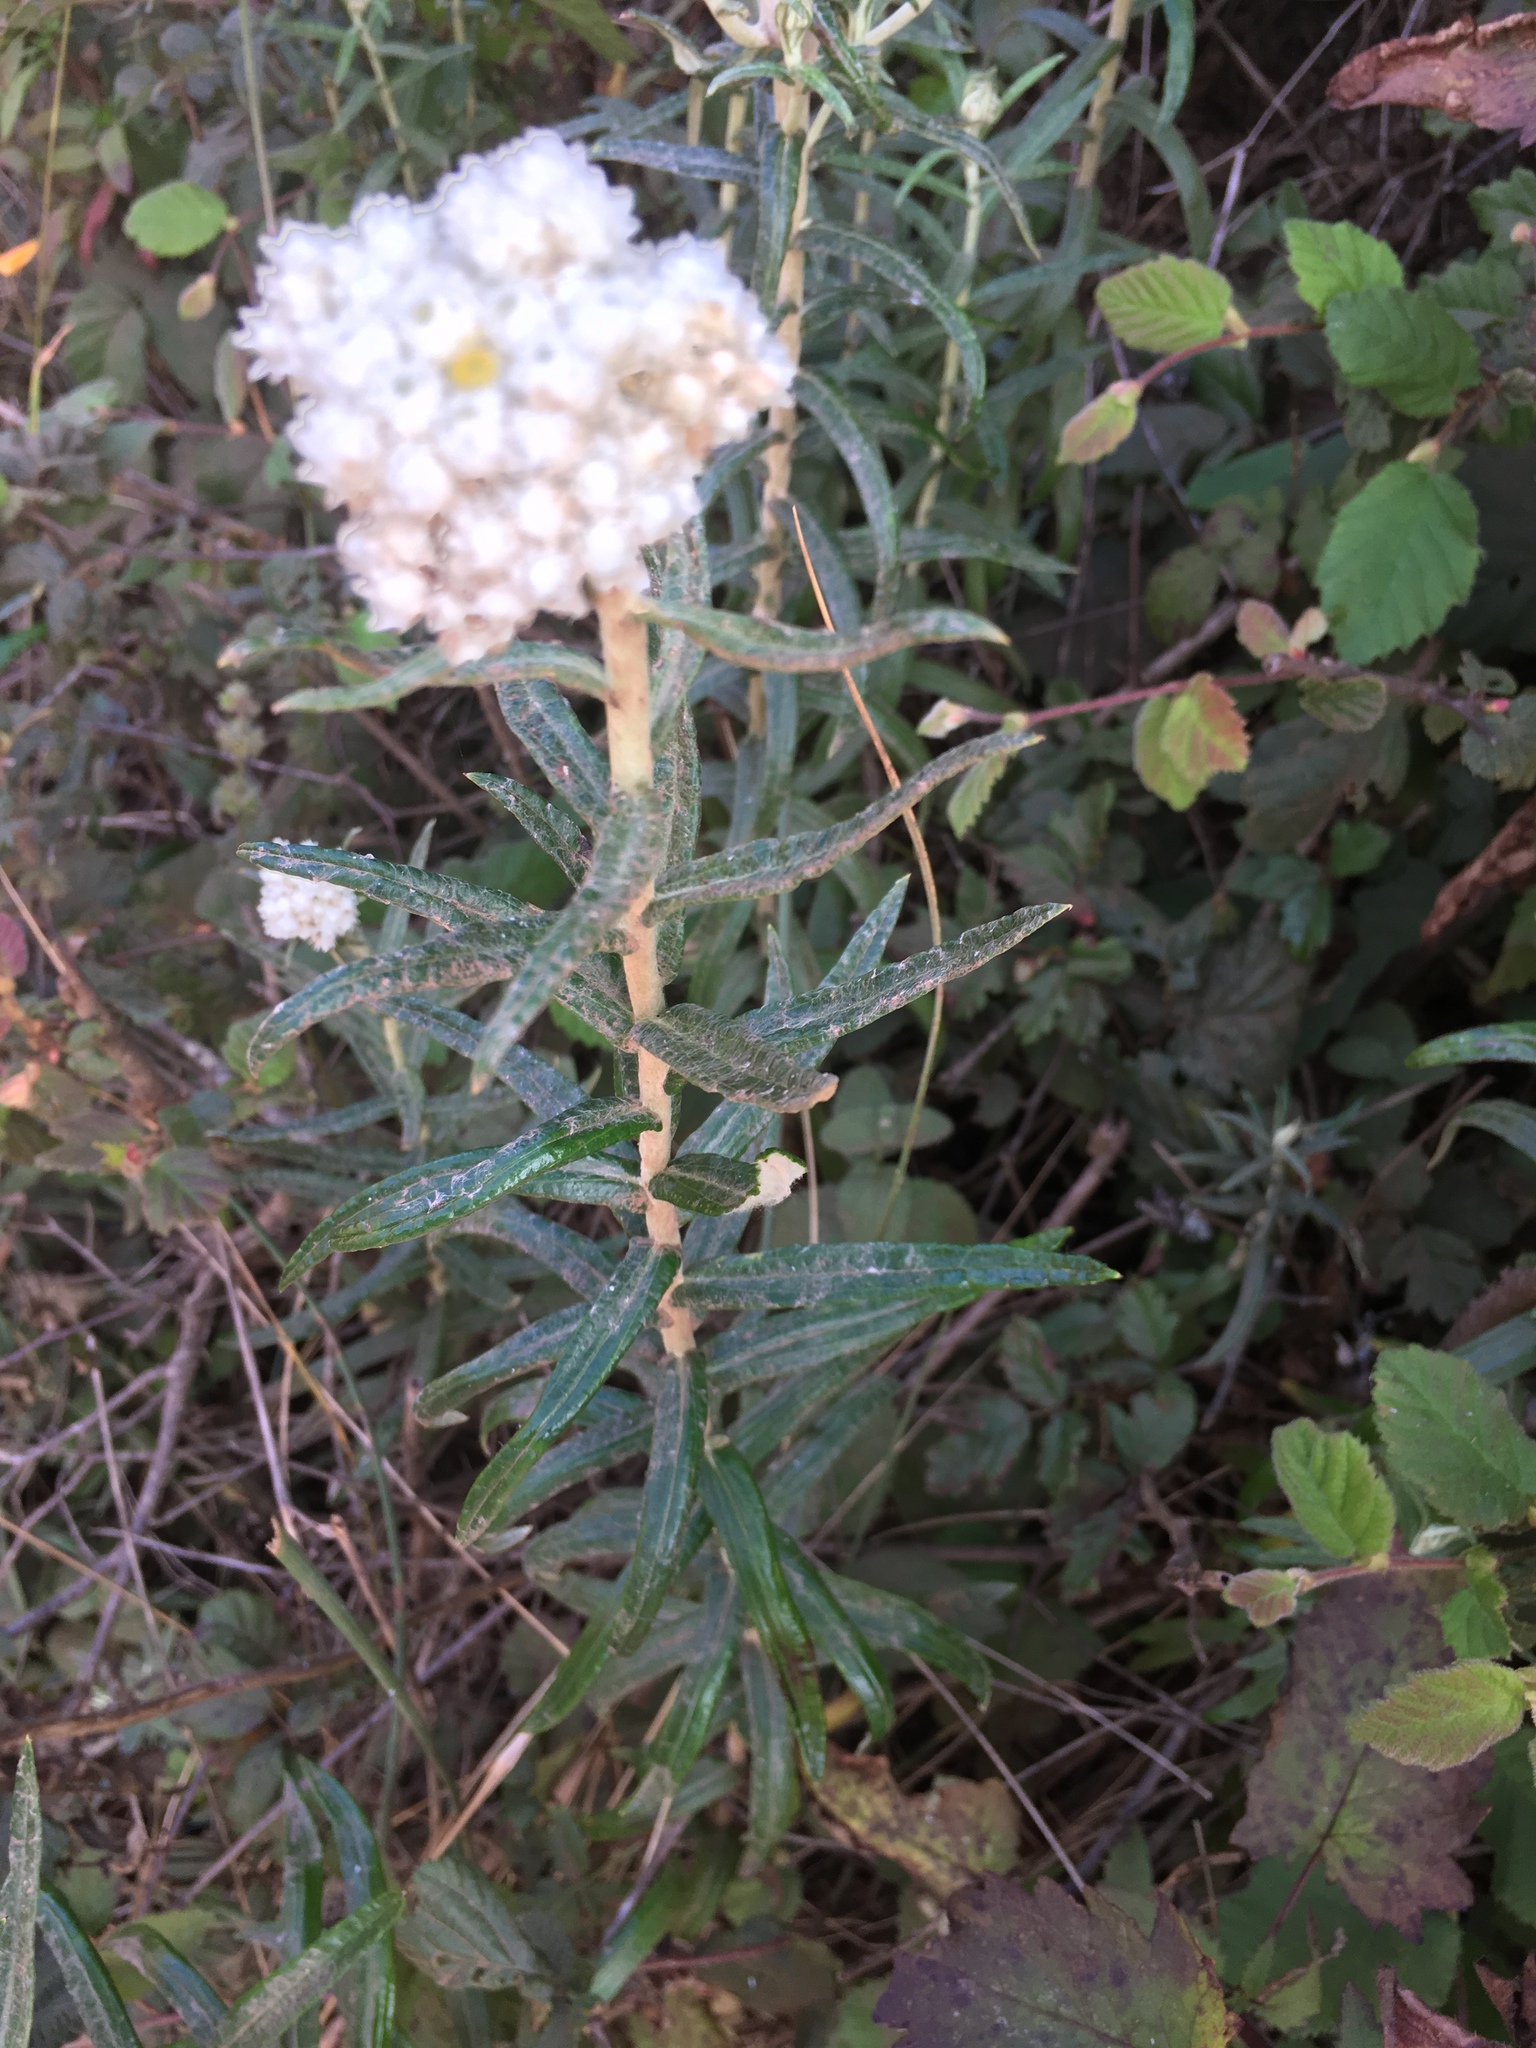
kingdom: Plantae
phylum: Tracheophyta
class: Magnoliopsida
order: Asterales
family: Asteraceae
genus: Anaphalis
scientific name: Anaphalis margaritacea
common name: Pearly everlasting
